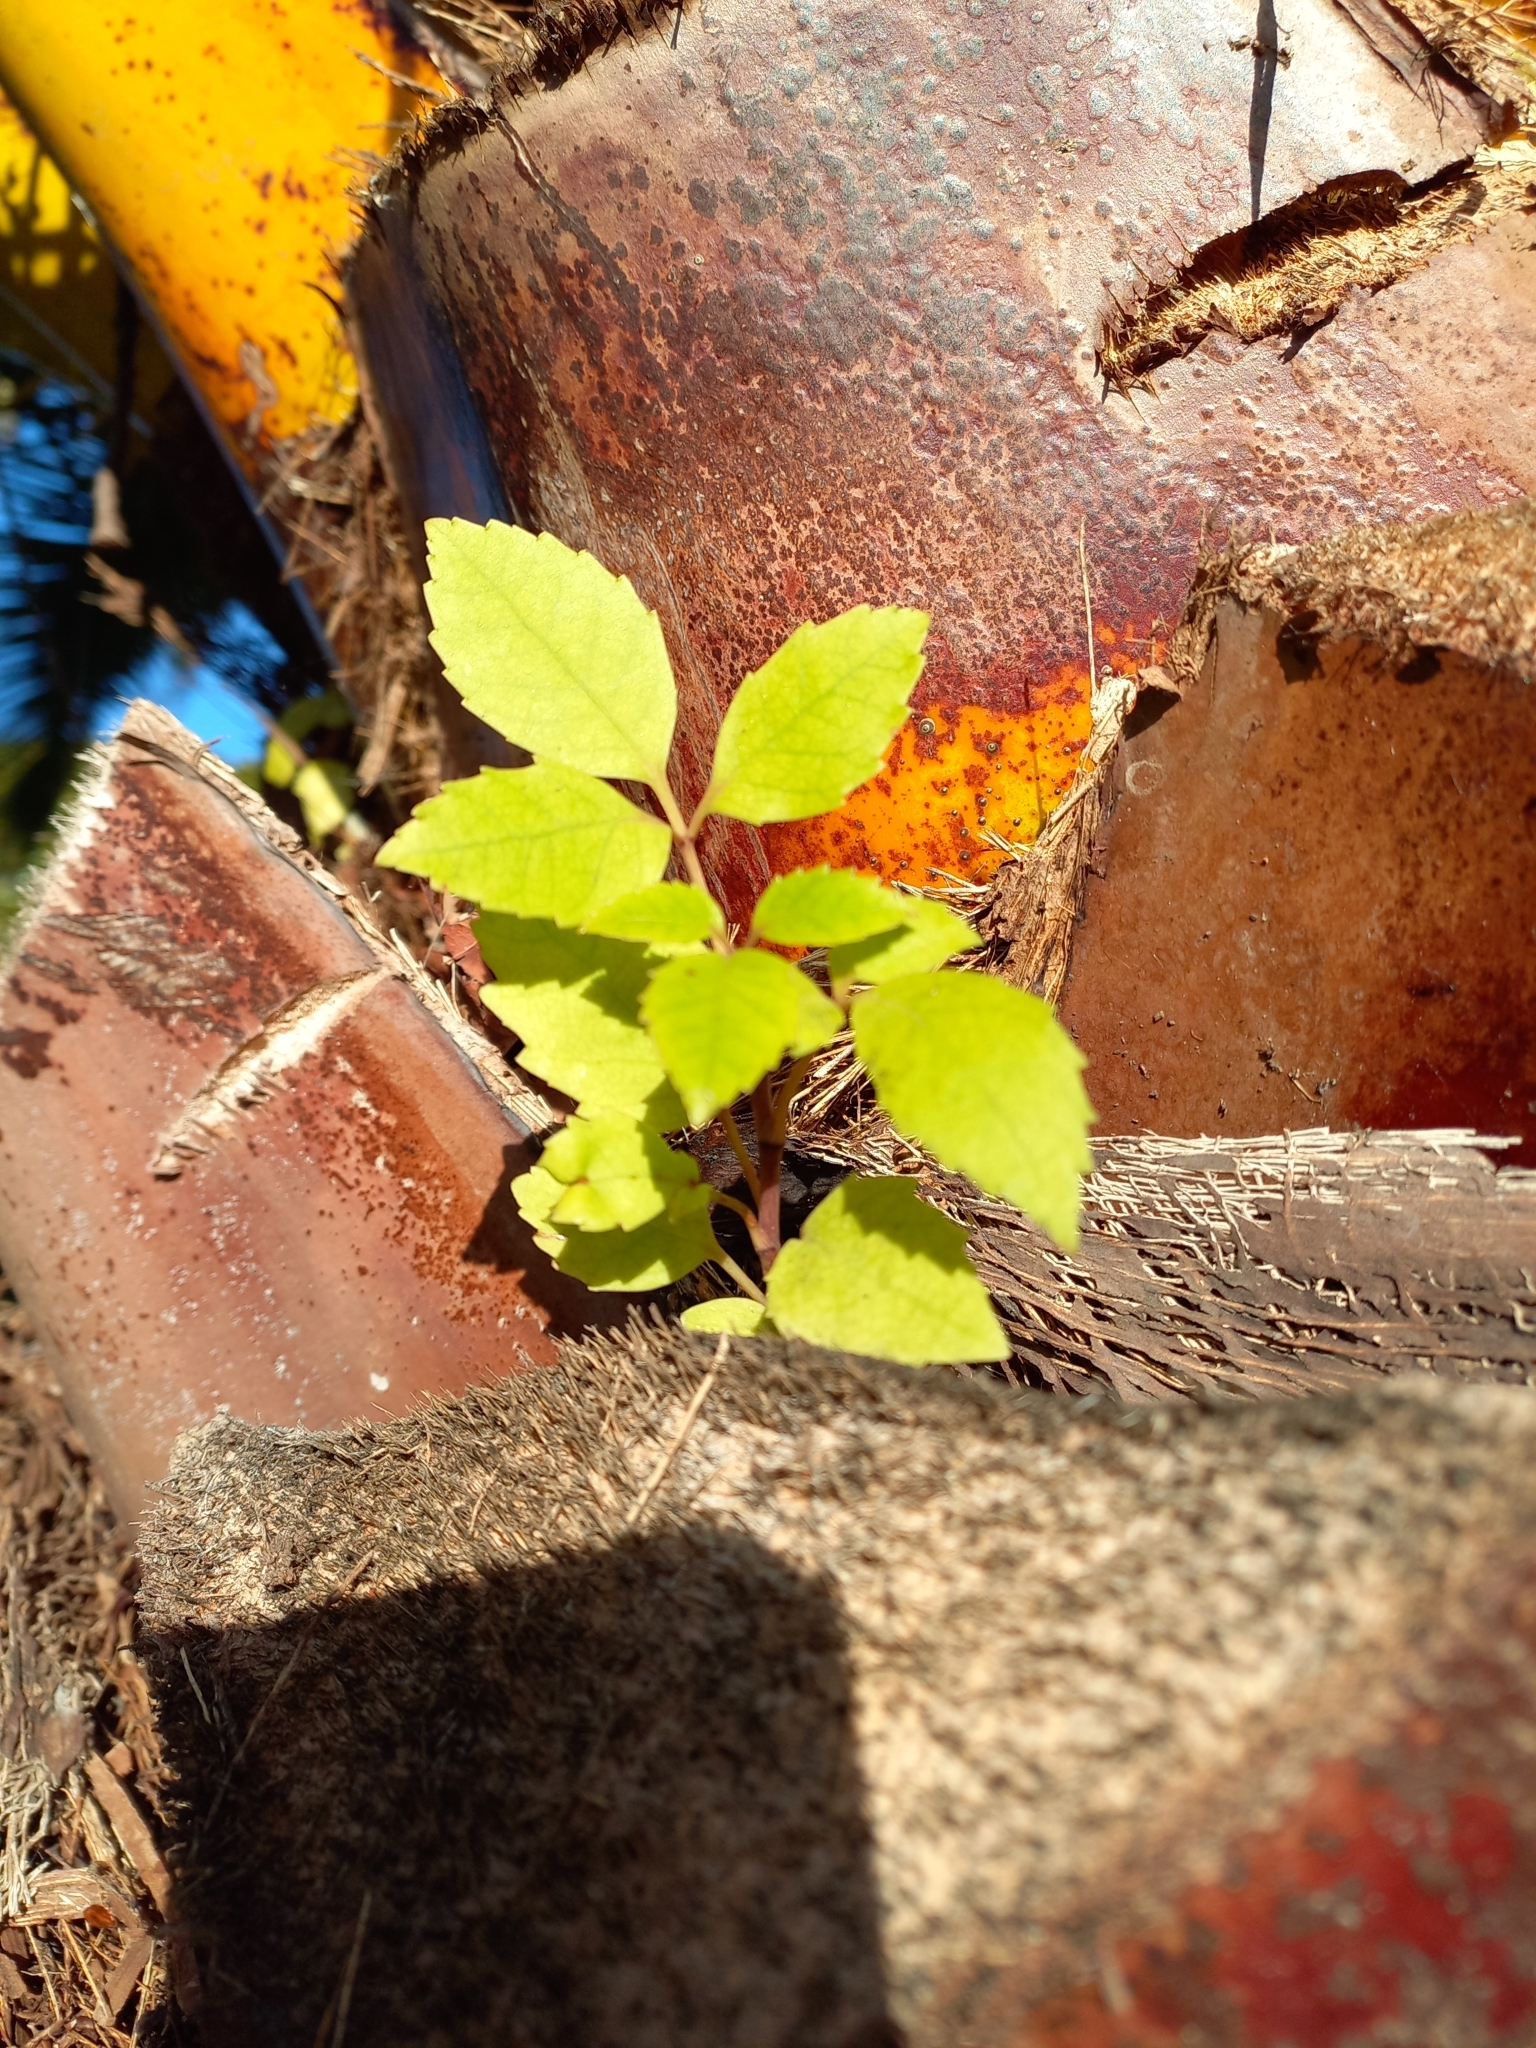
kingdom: Plantae
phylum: Tracheophyta
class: Magnoliopsida
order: Apiales
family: Araliaceae
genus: Neopanax
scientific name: Neopanax arboreus
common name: Five-fingers
